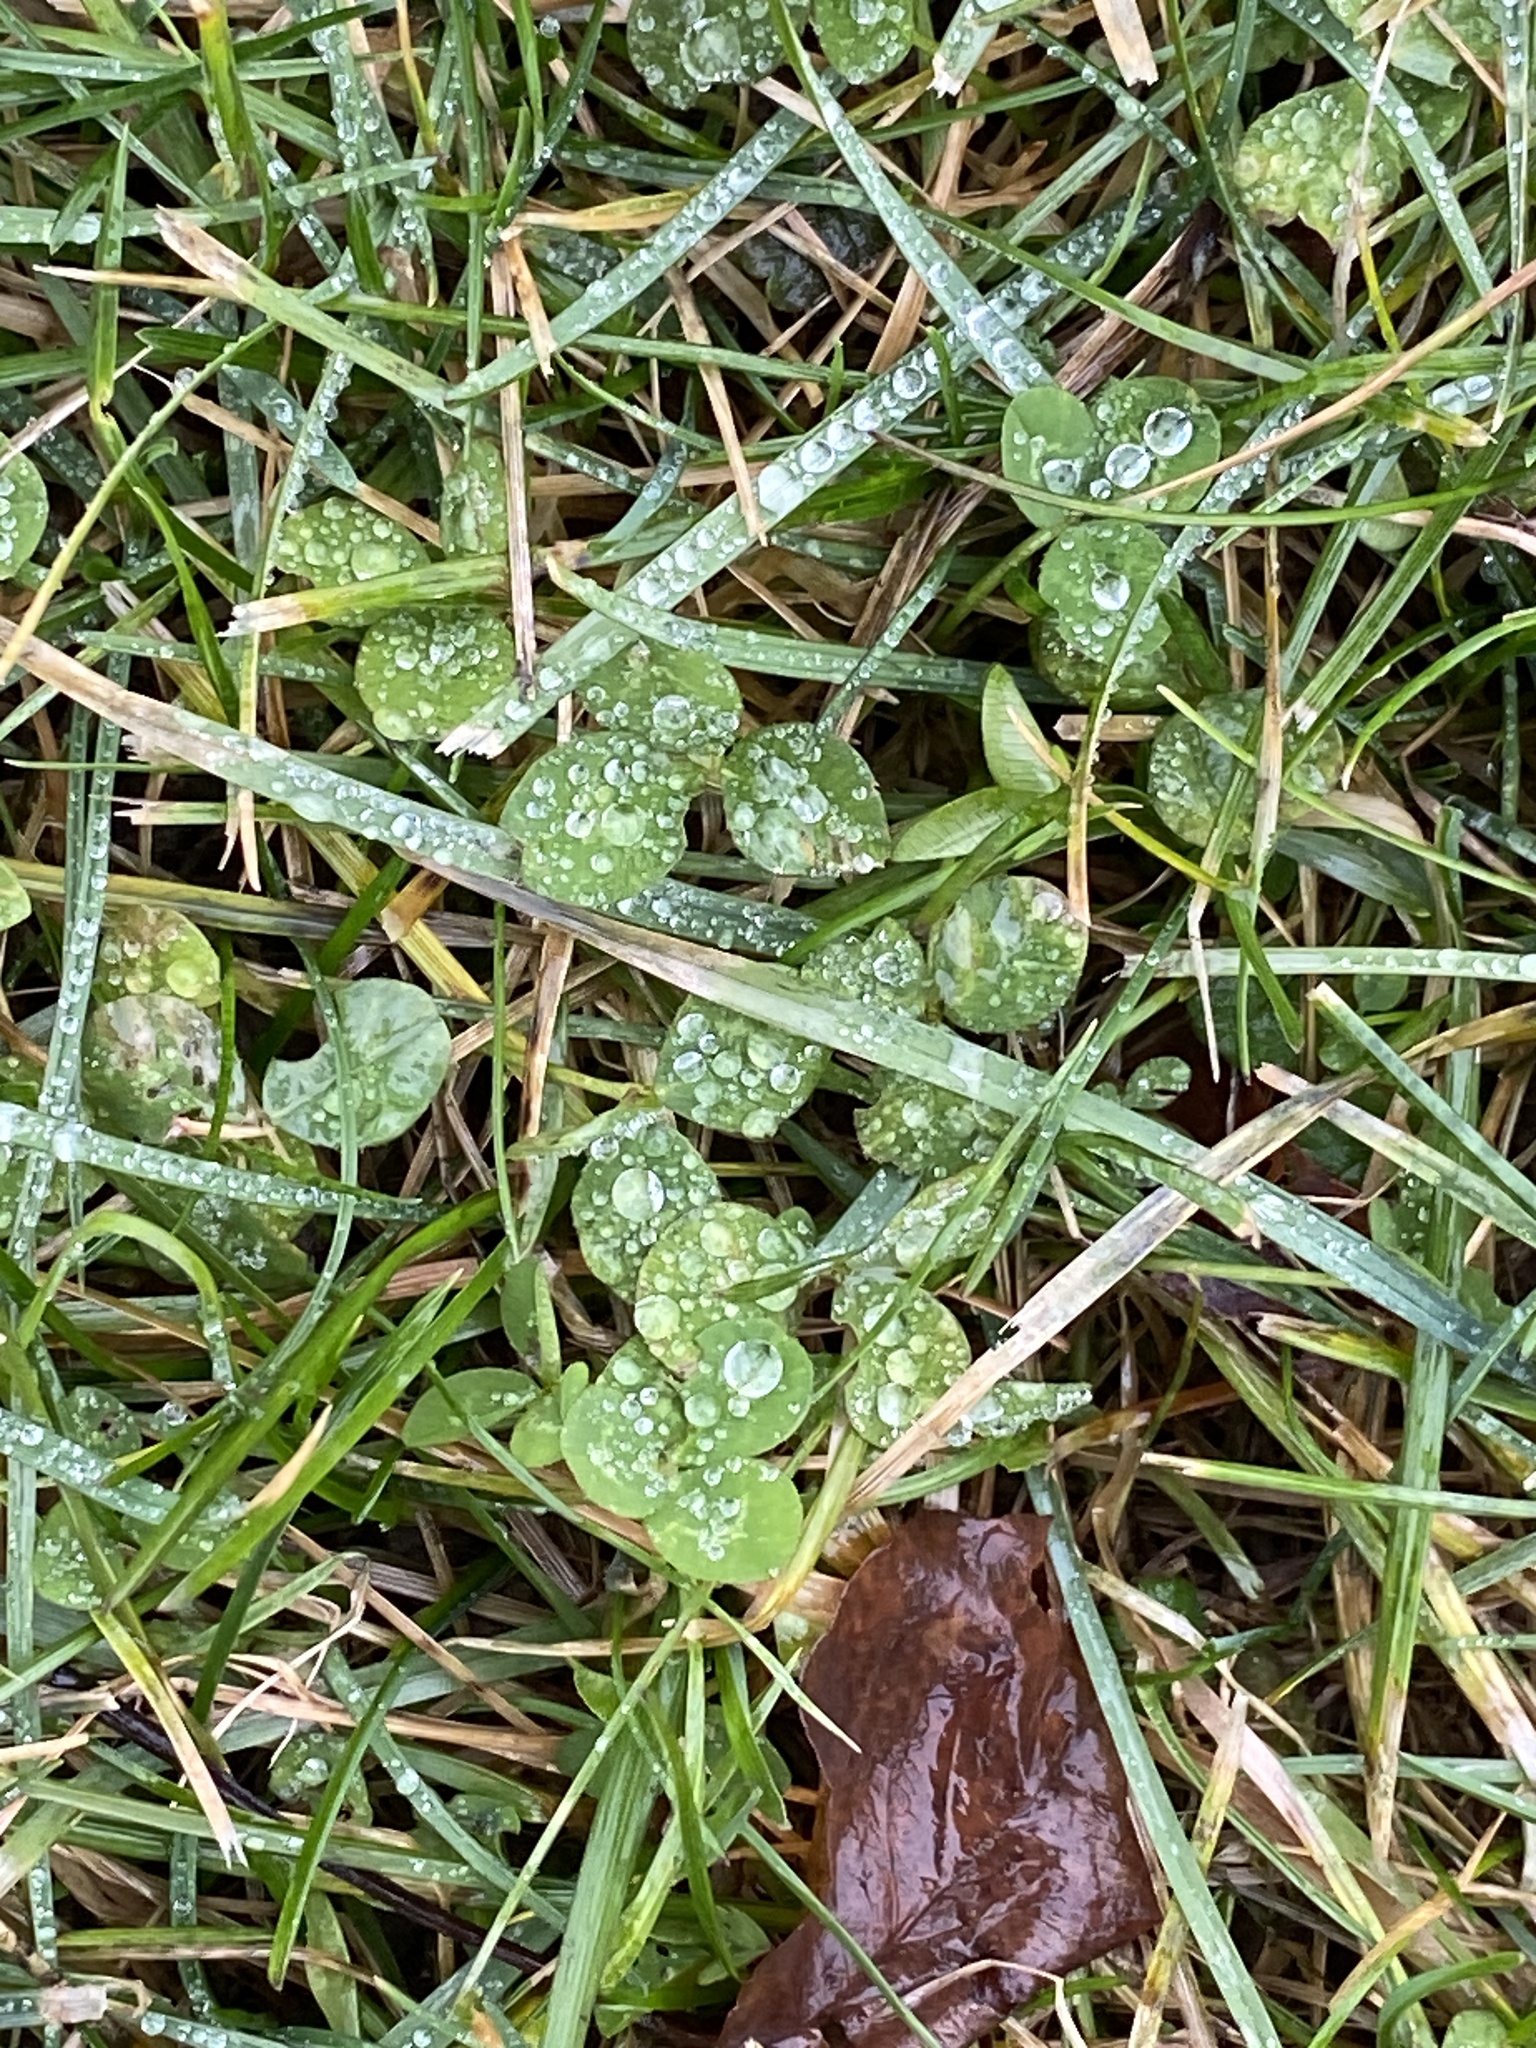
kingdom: Plantae
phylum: Tracheophyta
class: Magnoliopsida
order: Fabales
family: Fabaceae
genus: Trifolium
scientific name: Trifolium repens
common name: White clover
